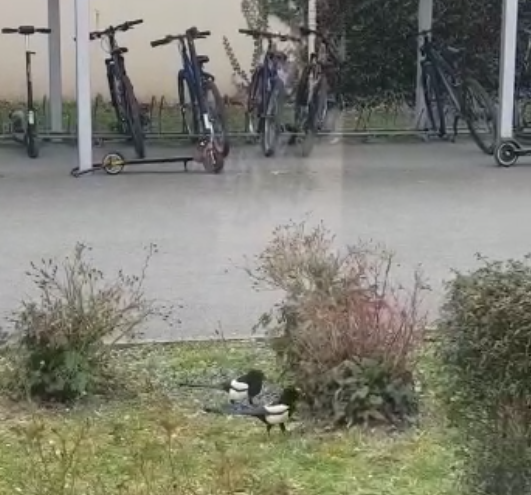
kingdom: Animalia
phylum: Chordata
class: Aves
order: Passeriformes
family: Corvidae
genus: Pica
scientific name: Pica pica
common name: Eurasian magpie
